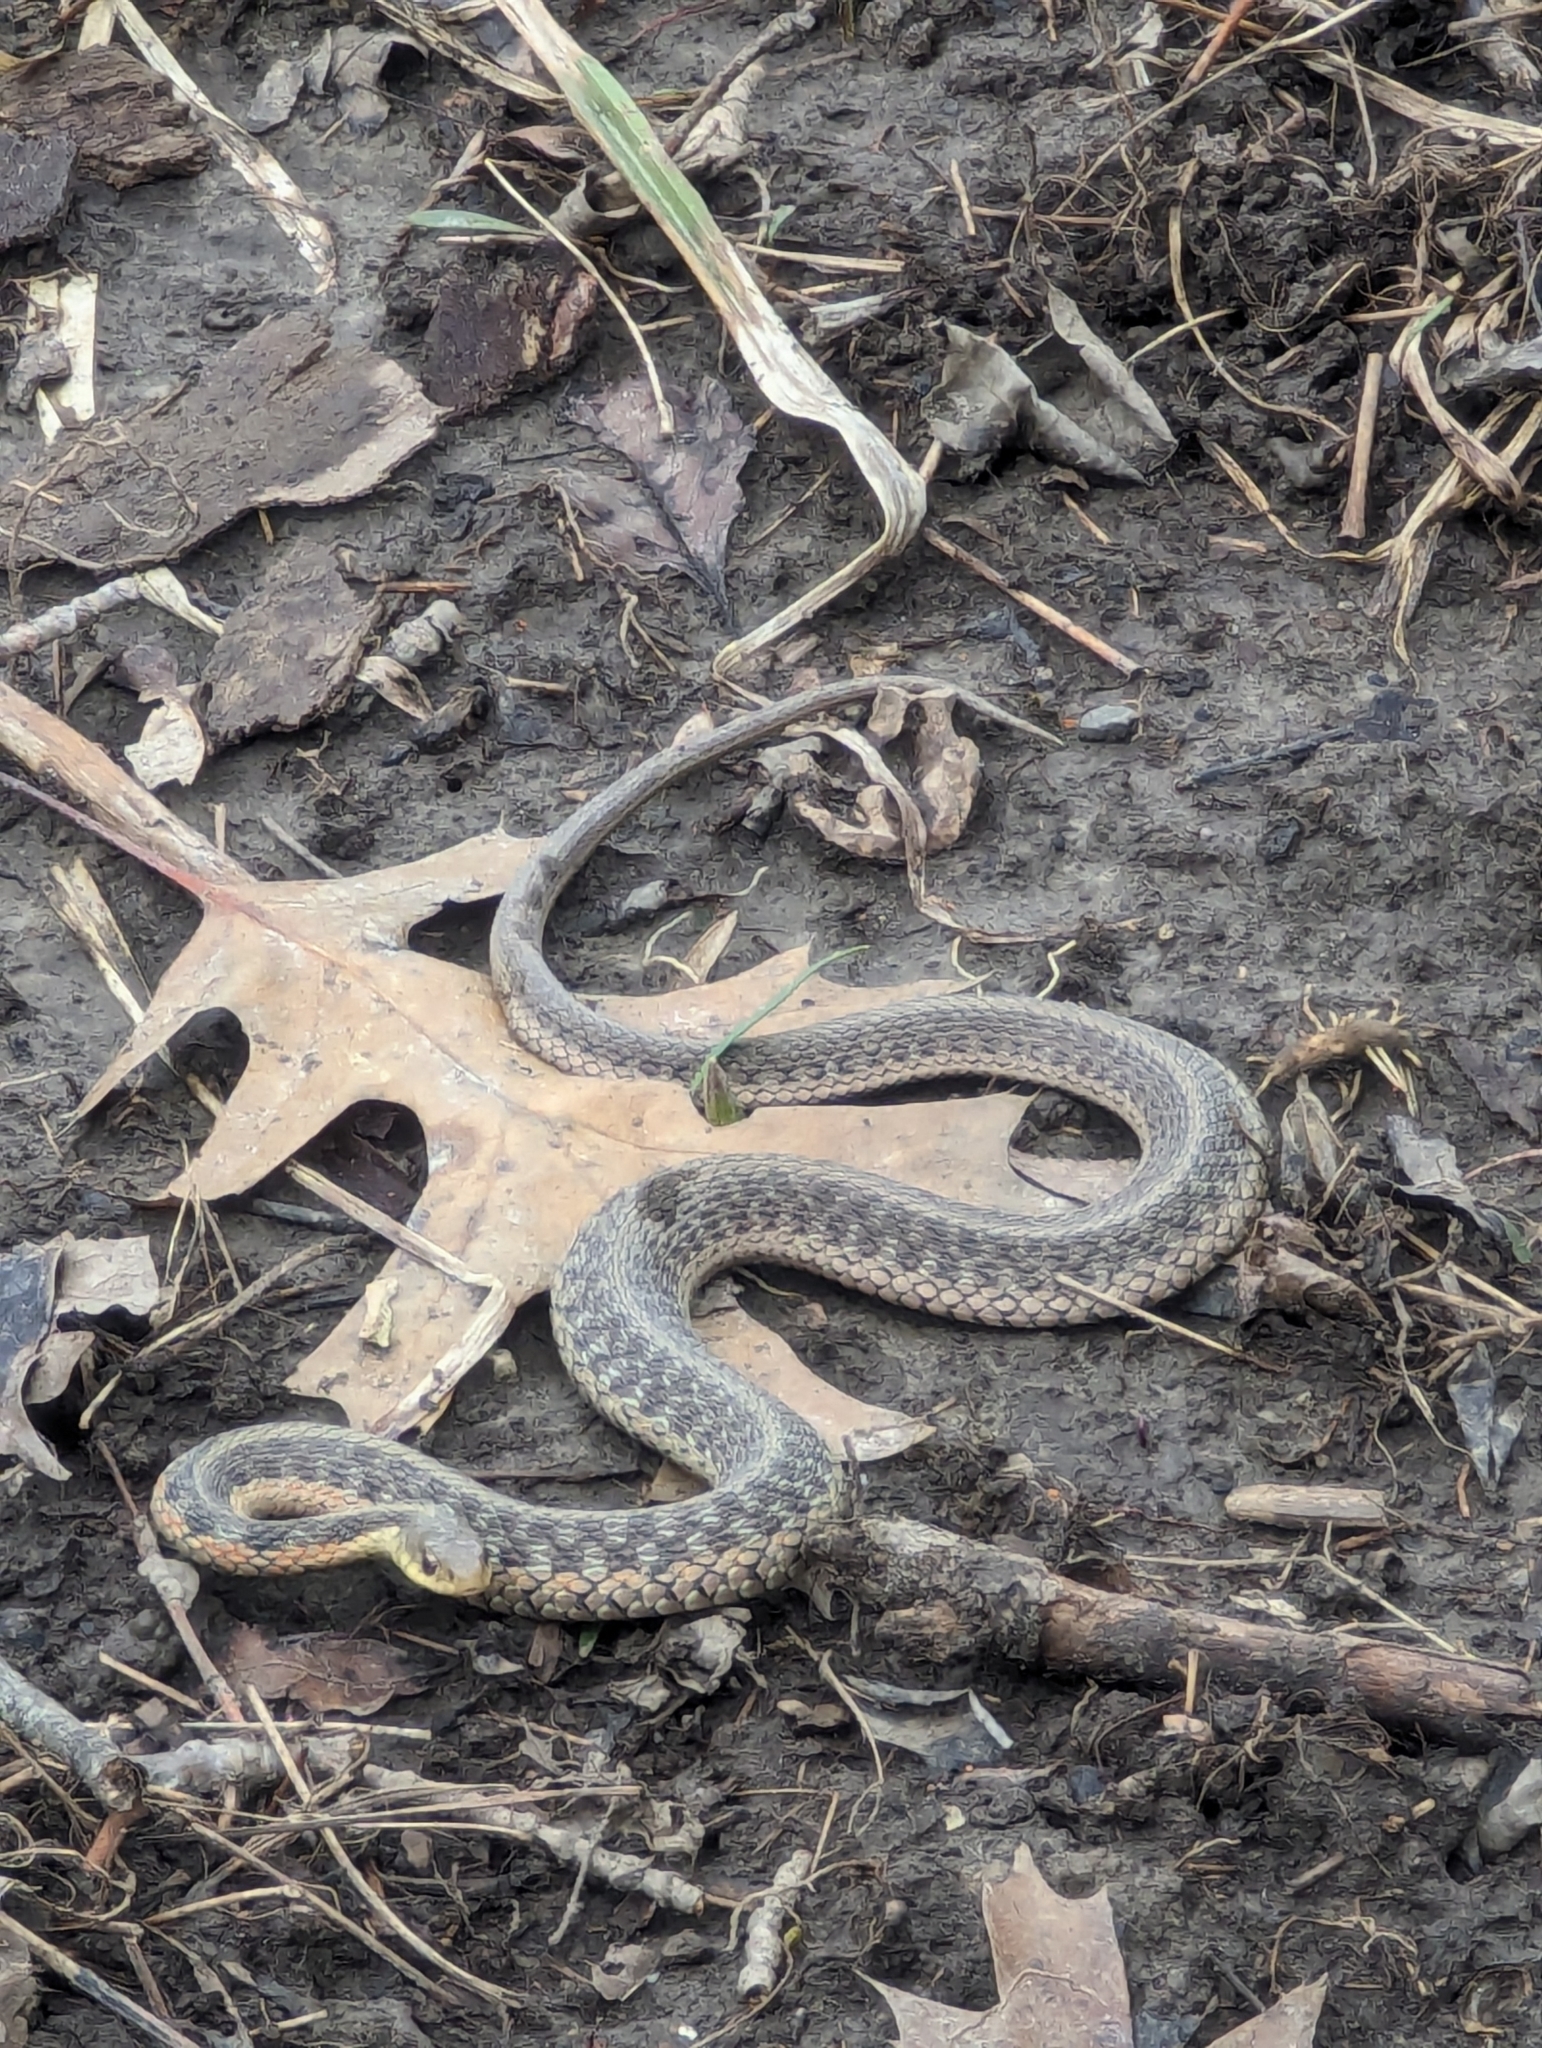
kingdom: Animalia
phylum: Chordata
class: Squamata
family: Colubridae
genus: Thamnophis
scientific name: Thamnophis sirtalis
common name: Common garter snake
